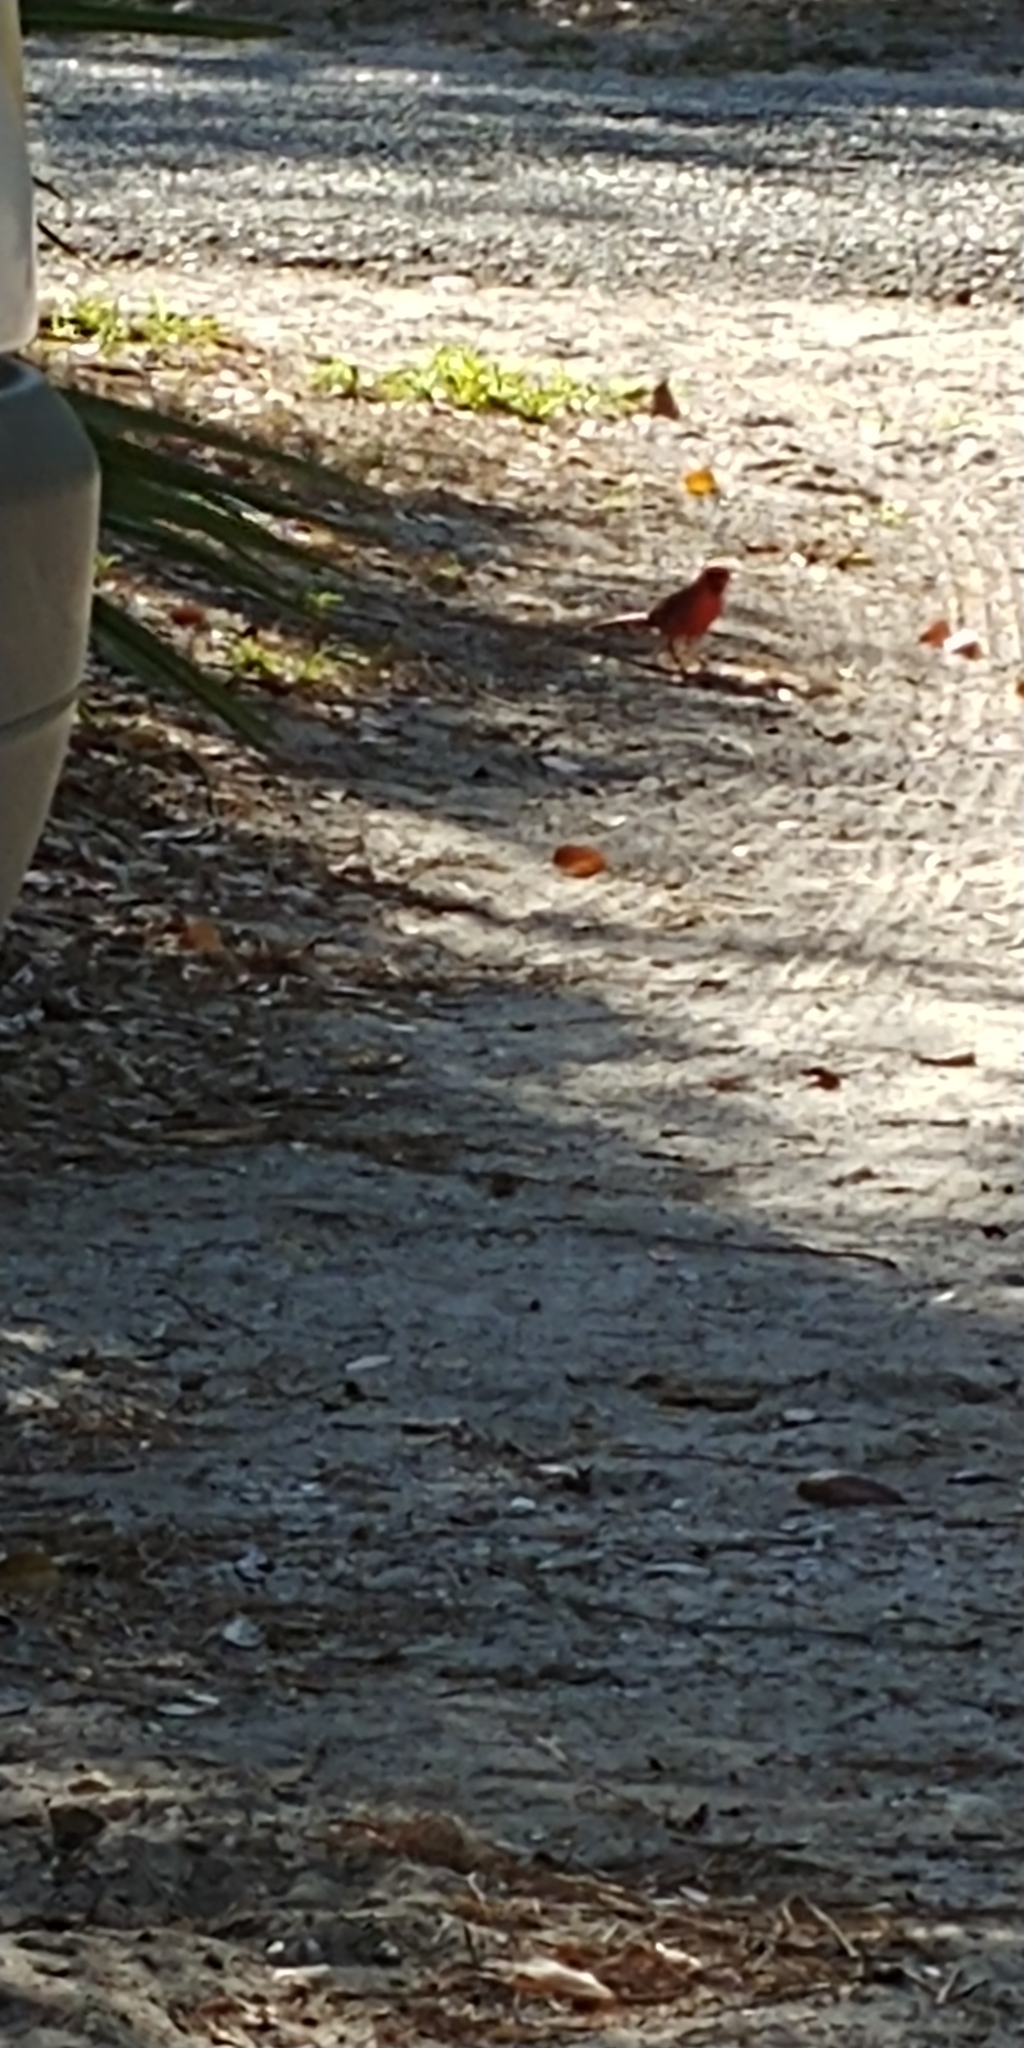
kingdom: Animalia
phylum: Chordata
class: Aves
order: Passeriformes
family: Cardinalidae
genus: Cardinalis
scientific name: Cardinalis cardinalis
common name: Northern cardinal
